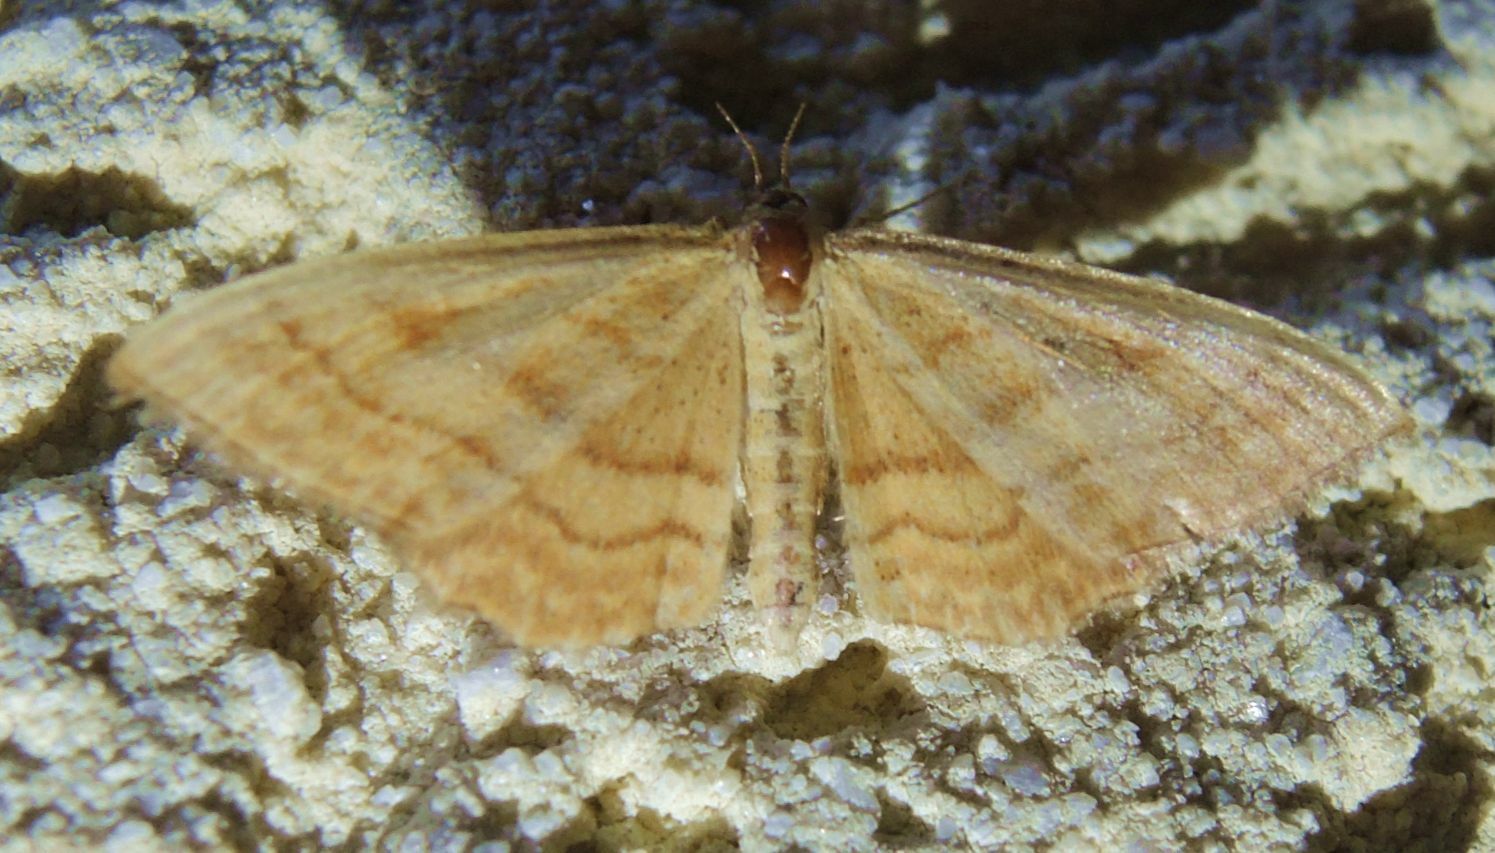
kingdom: Animalia
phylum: Arthropoda
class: Insecta
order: Lepidoptera
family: Geometridae
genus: Idaea
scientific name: Idaea ochrata
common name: Bright wave
